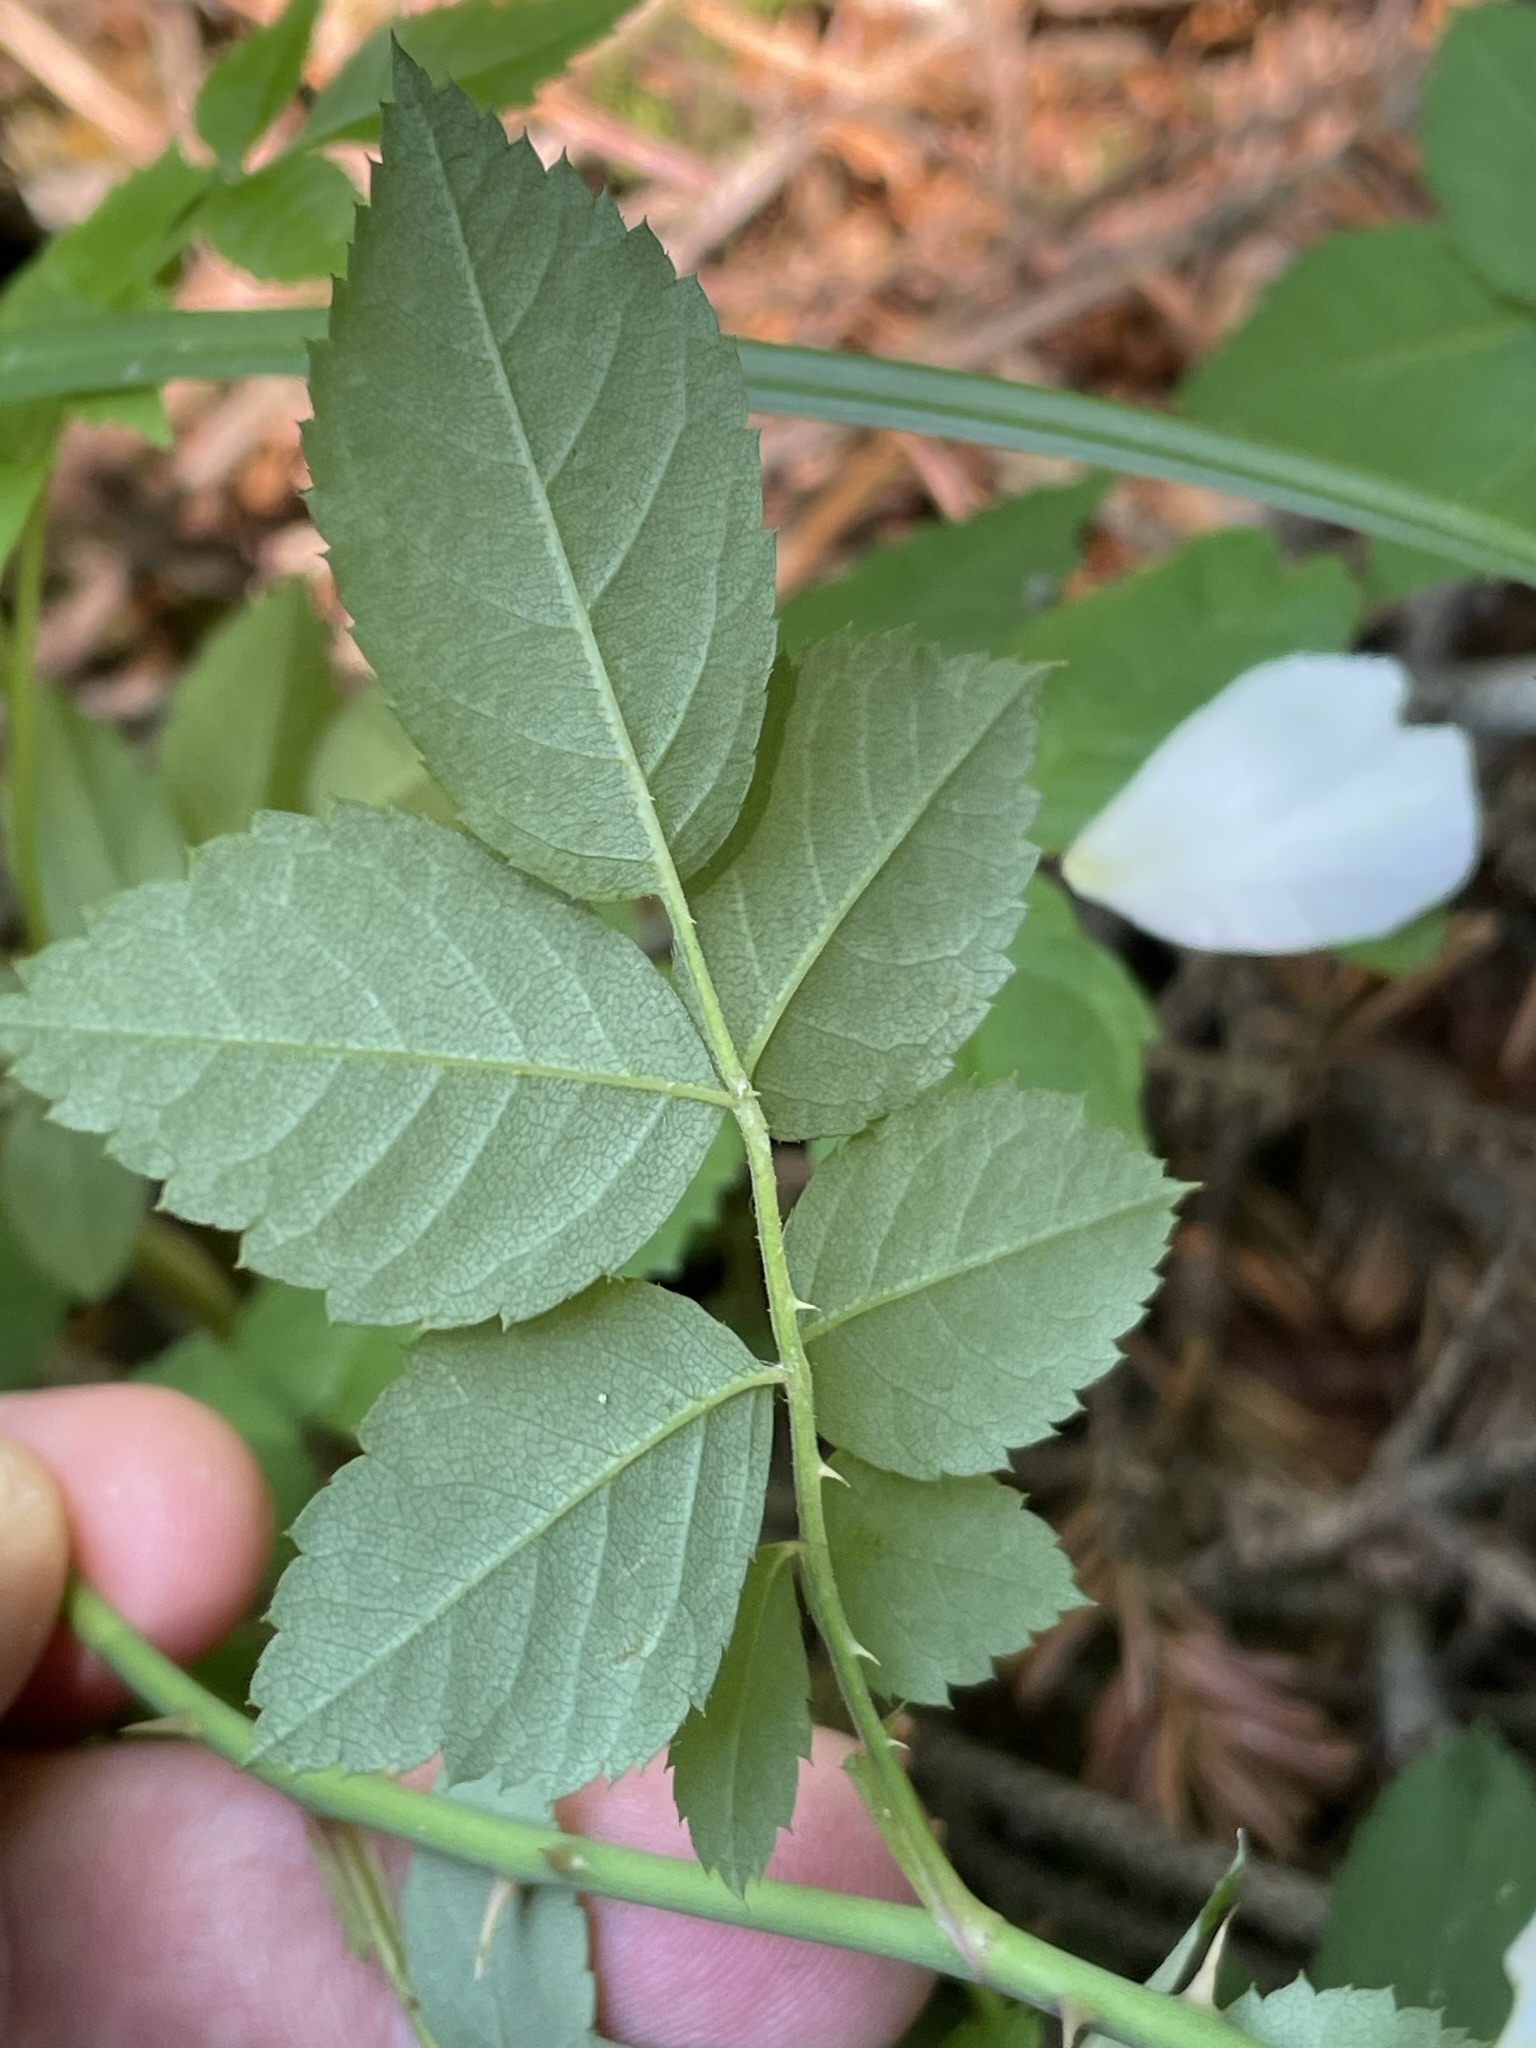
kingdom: Plantae
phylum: Tracheophyta
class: Magnoliopsida
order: Rosales
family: Rosaceae
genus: Rosa
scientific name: Rosa arvensis
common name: Field rose
